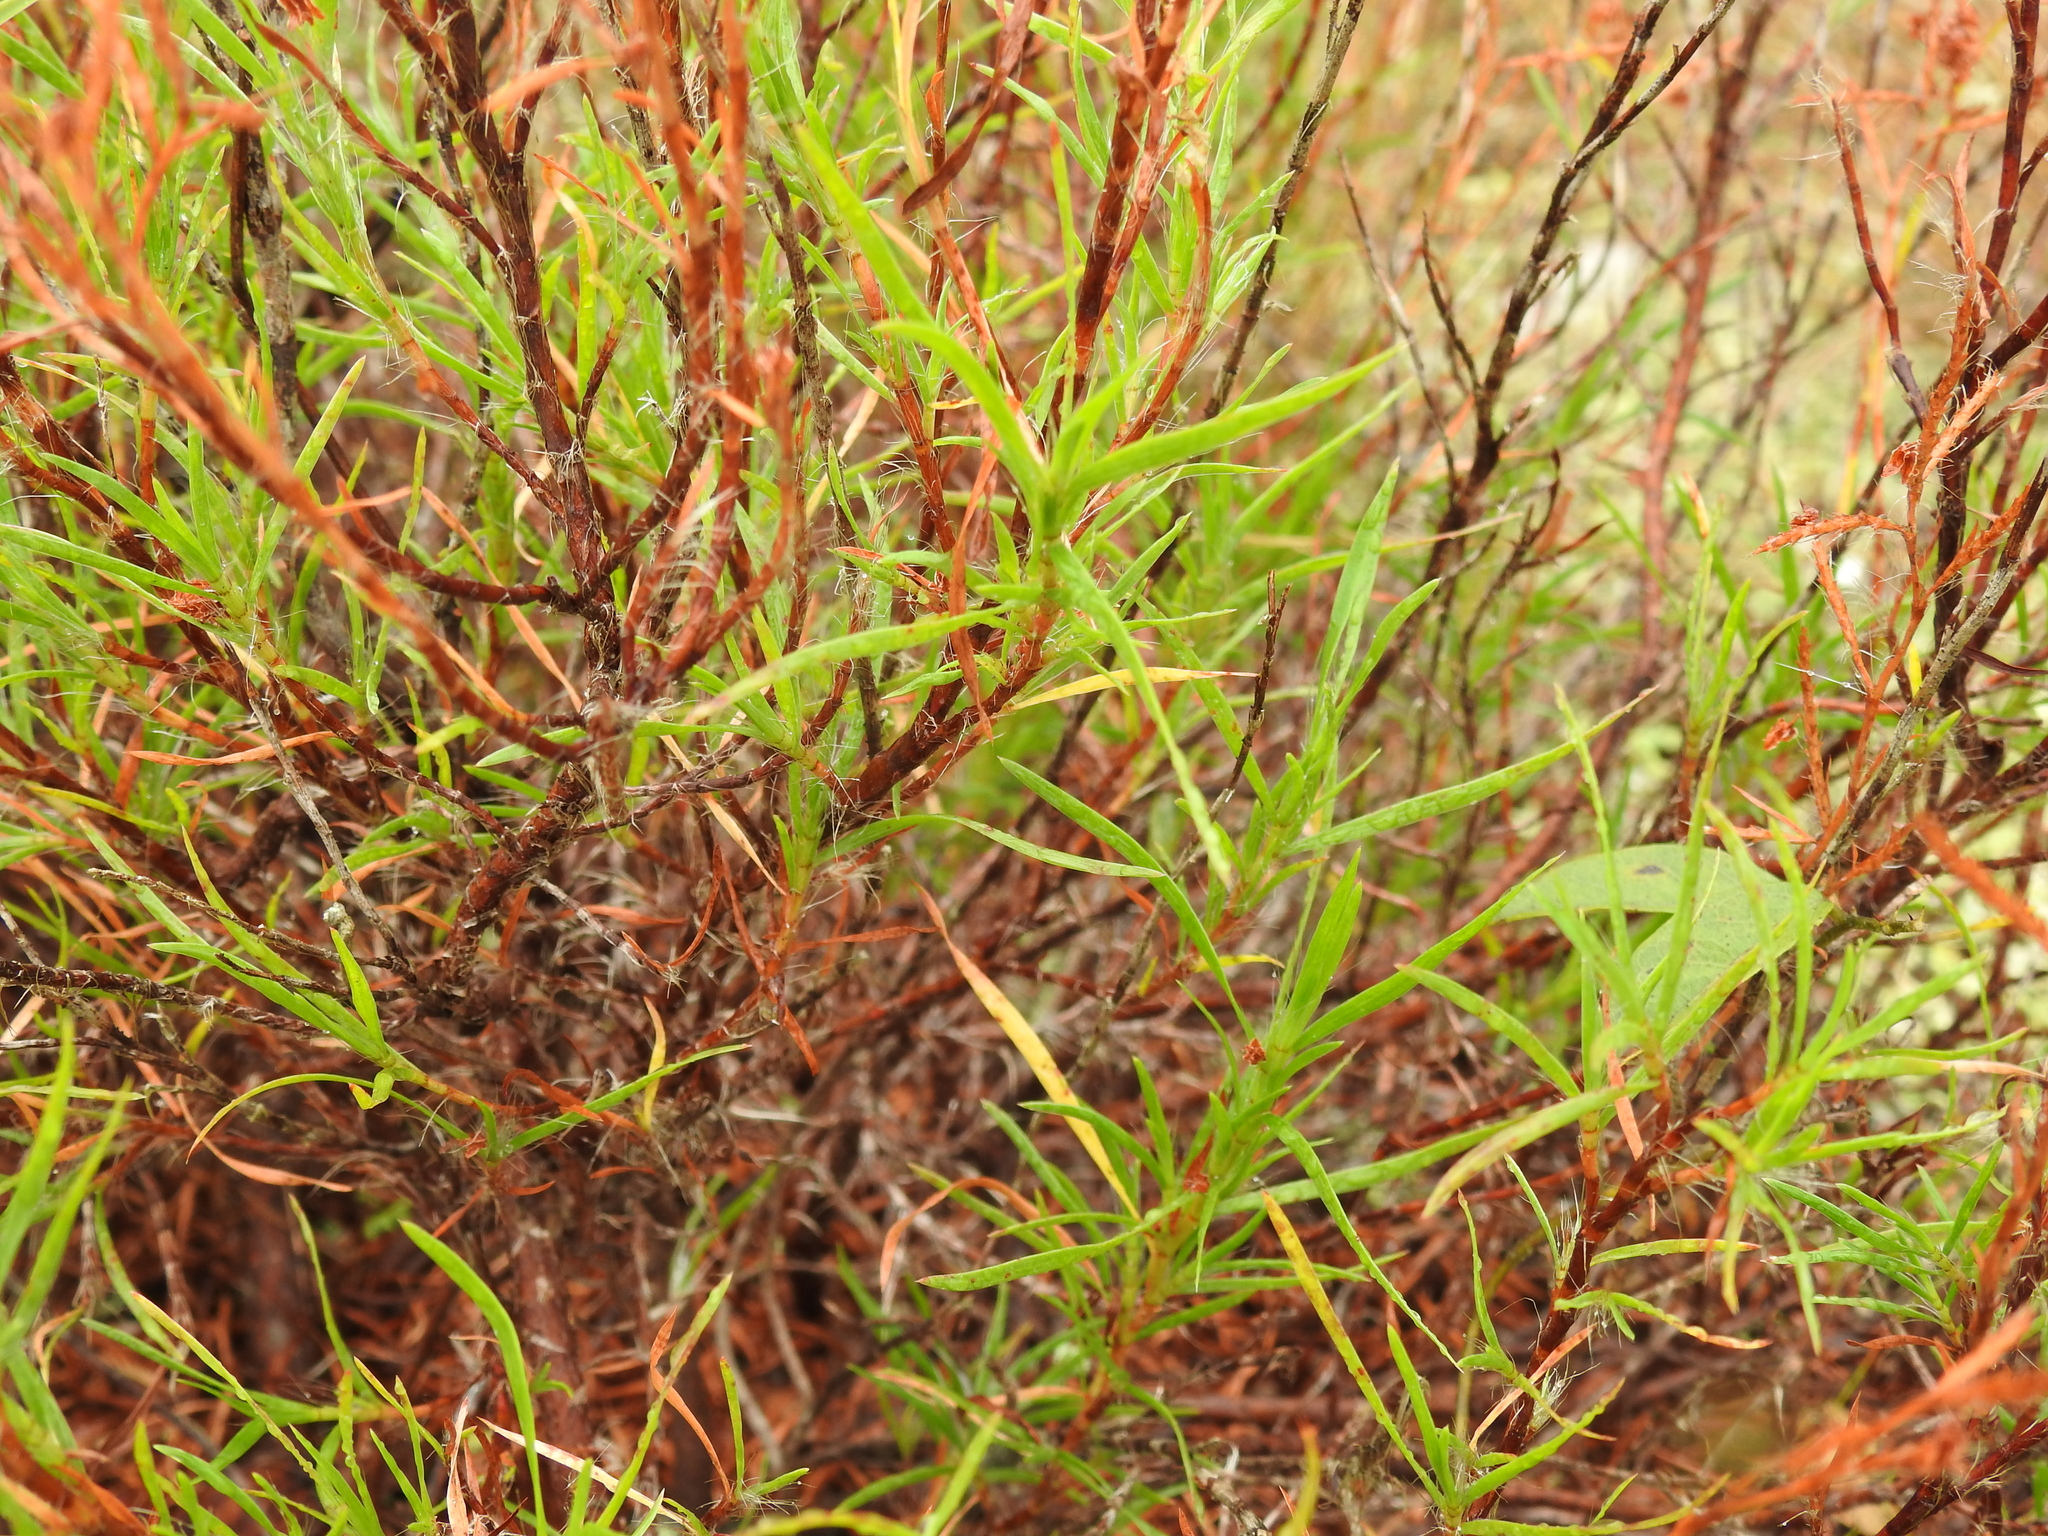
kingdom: Plantae
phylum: Tracheophyta
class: Magnoliopsida
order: Caryophyllales
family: Polygonaceae
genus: Polygonella
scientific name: Polygonella robusta
